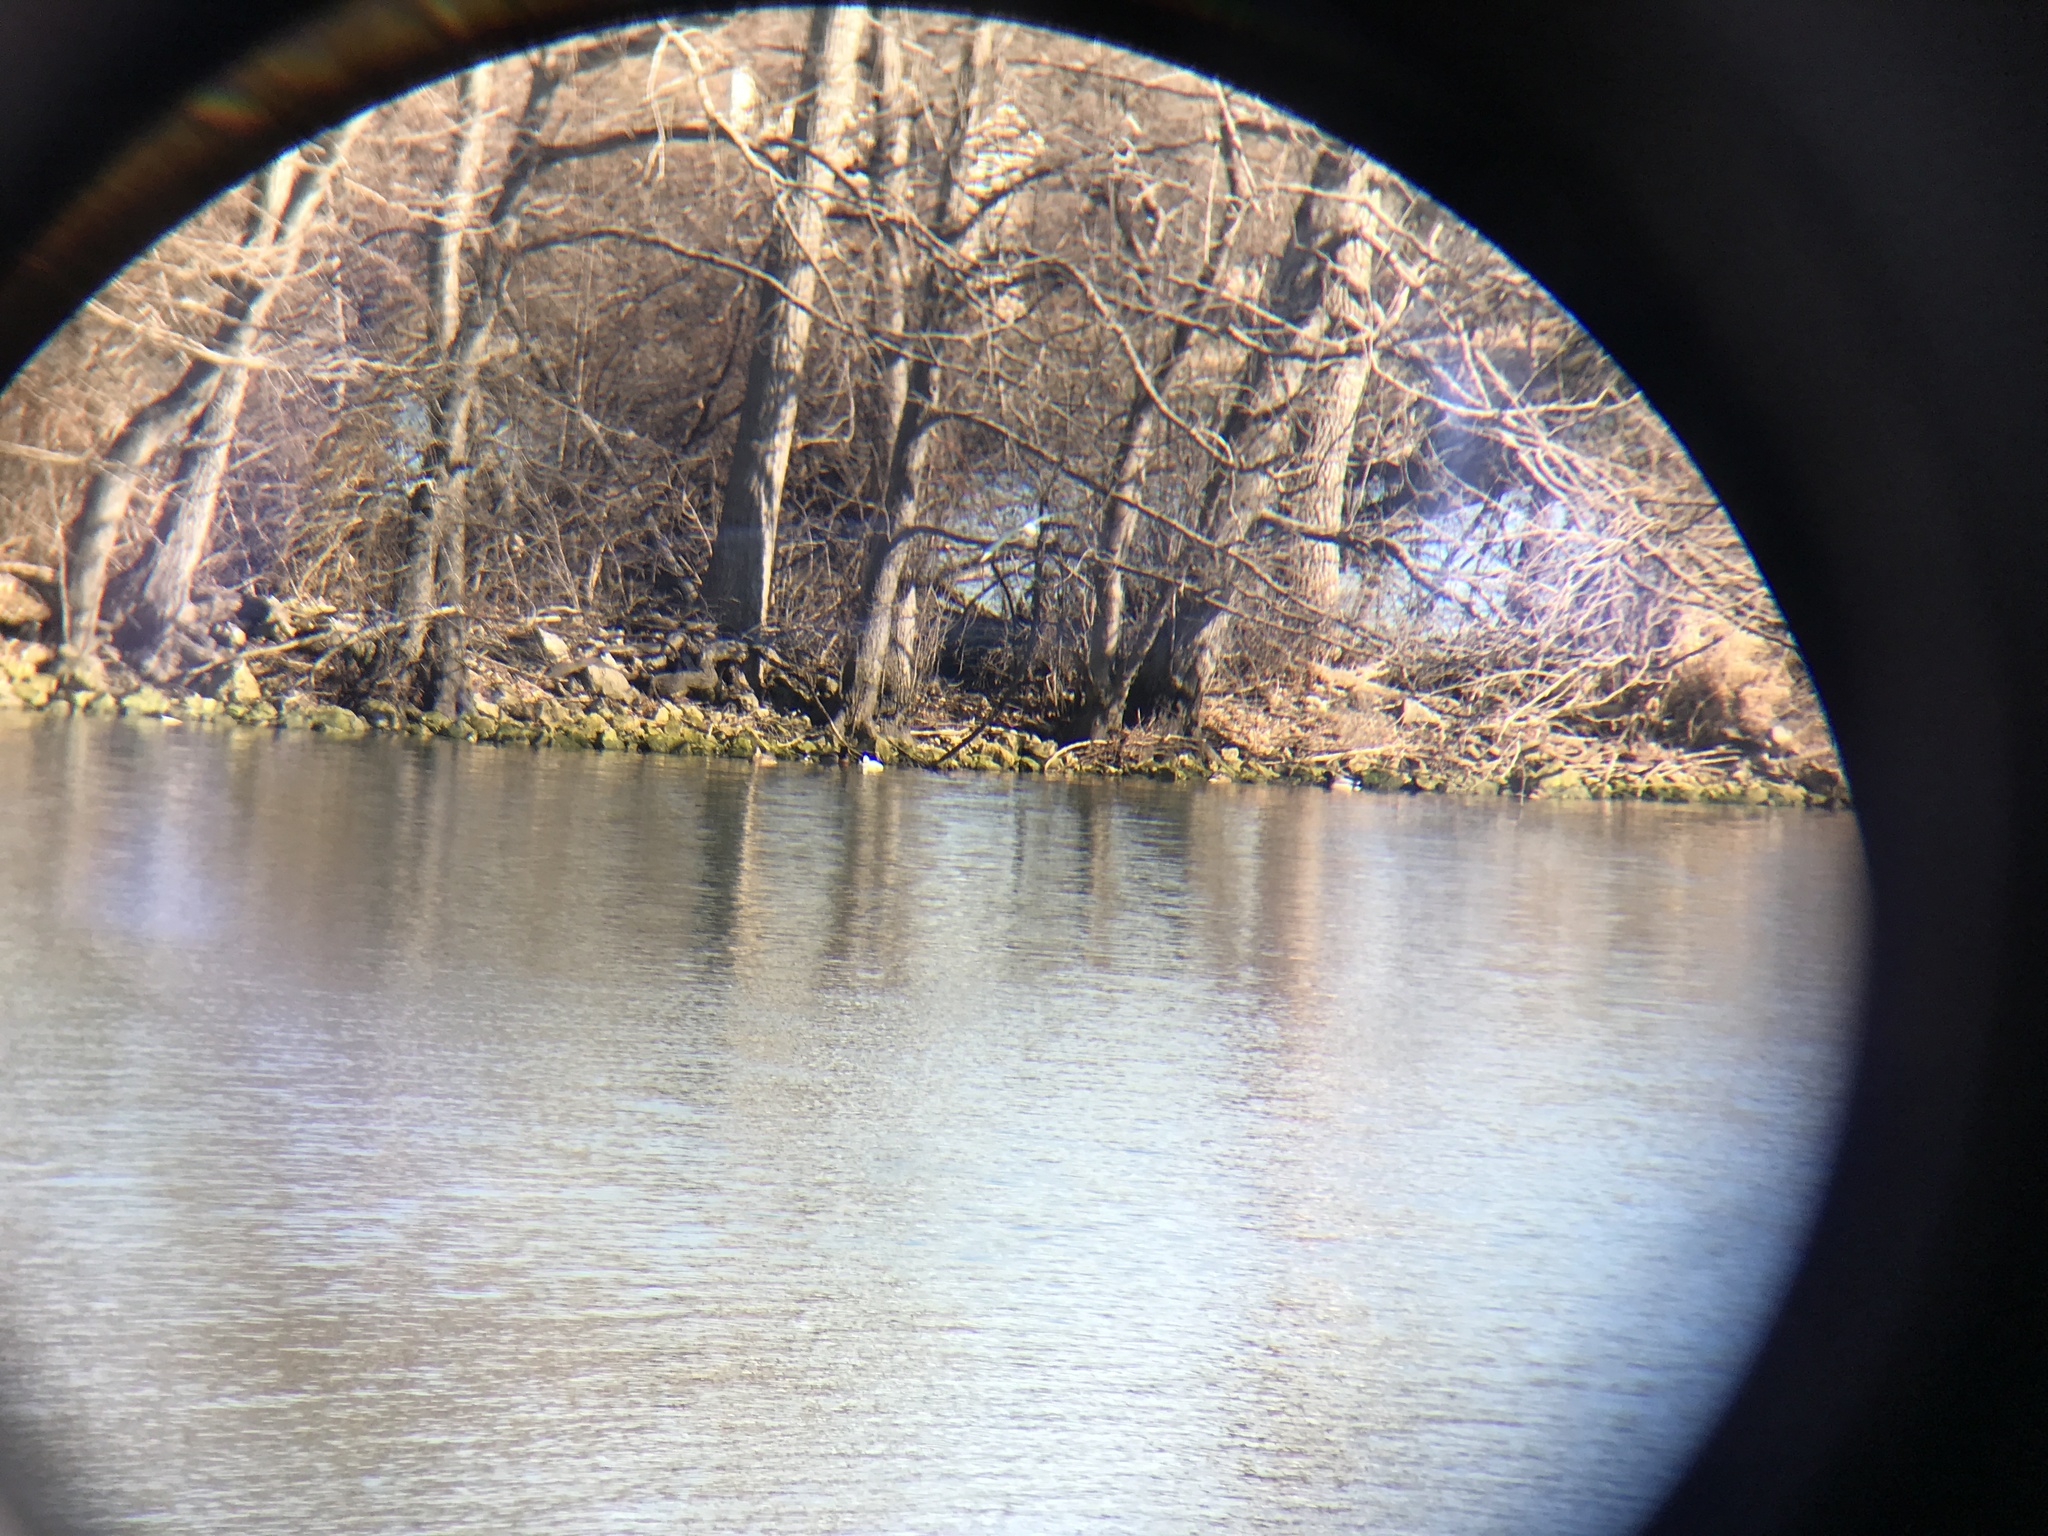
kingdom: Animalia
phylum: Chordata
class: Aves
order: Charadriiformes
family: Laridae
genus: Chroicocephalus
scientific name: Chroicocephalus philadelphia
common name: Bonaparte's gull
